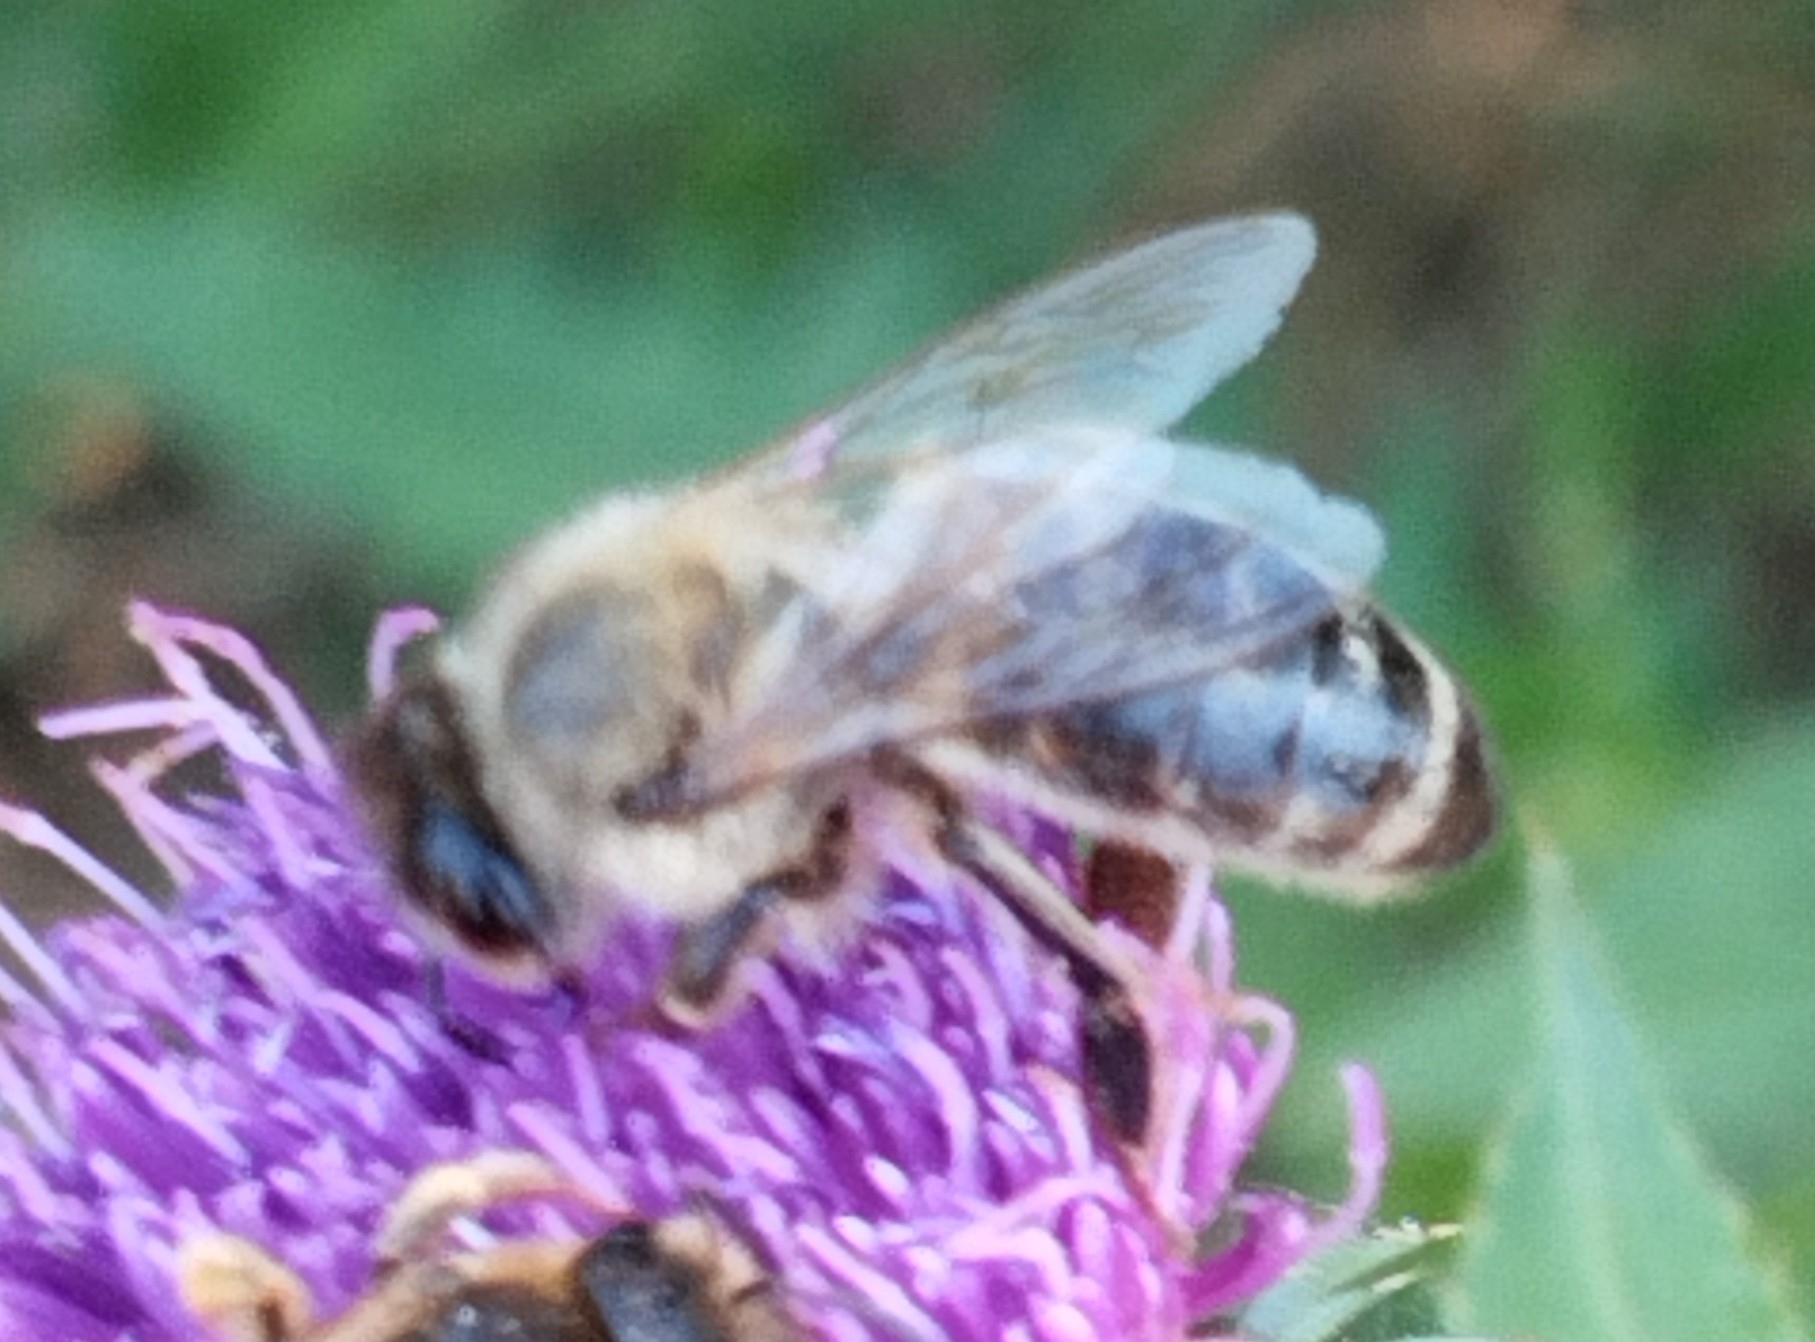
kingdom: Animalia
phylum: Arthropoda
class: Insecta
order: Hymenoptera
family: Apidae
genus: Apis
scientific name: Apis mellifera
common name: Honey bee
